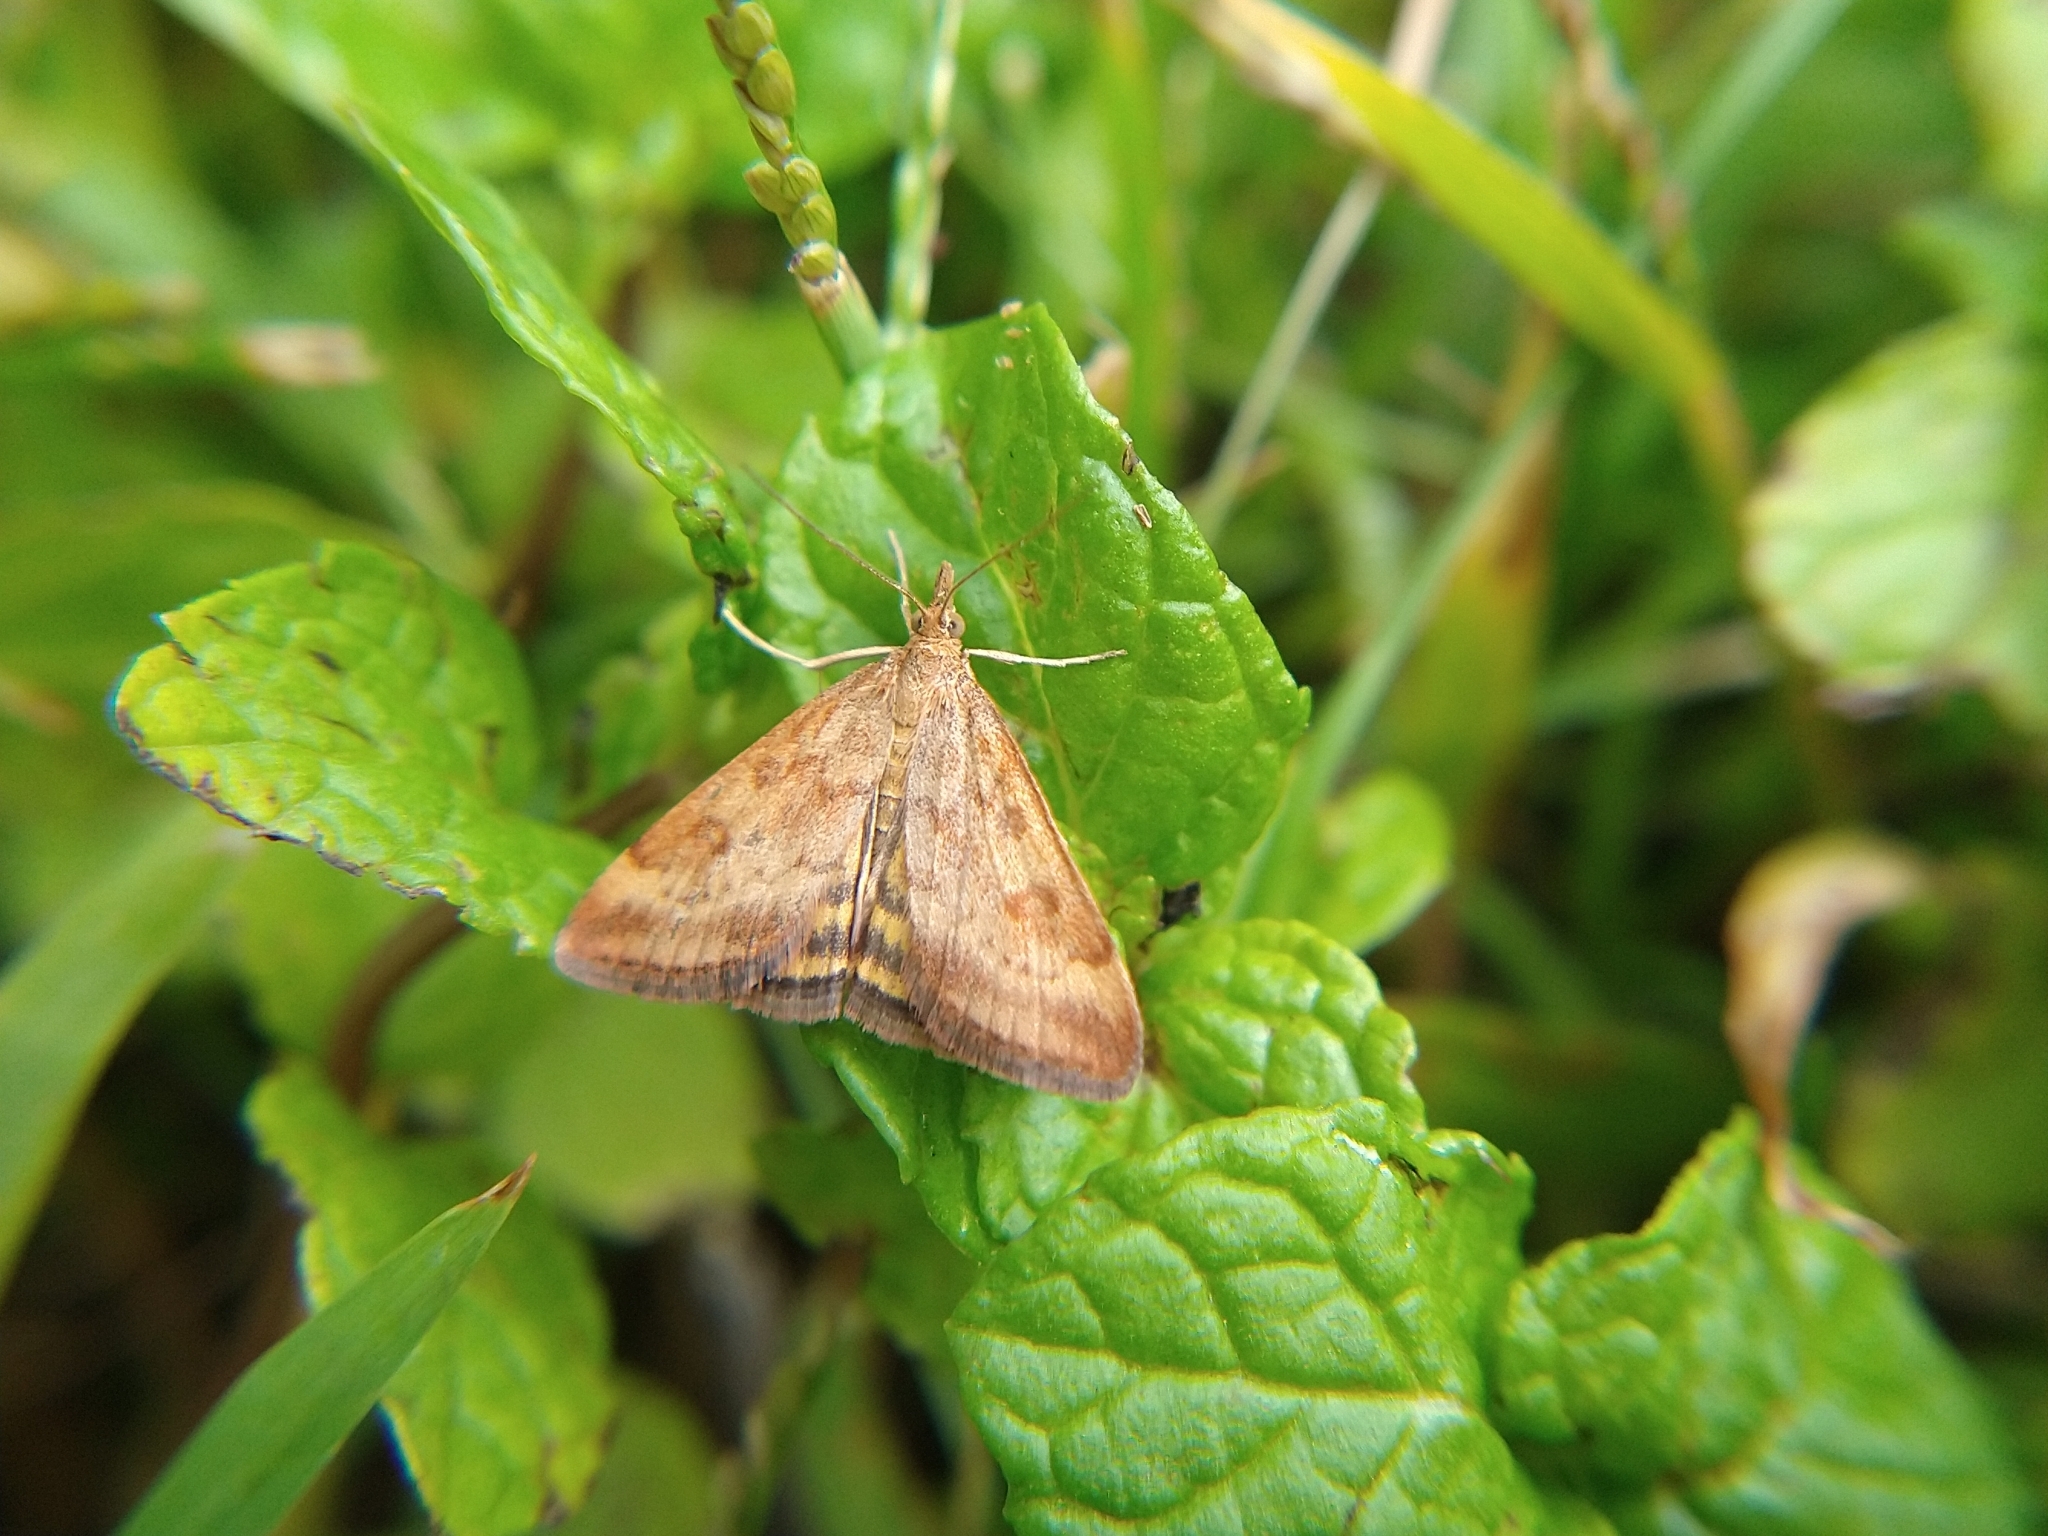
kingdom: Animalia
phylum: Arthropoda
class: Insecta
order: Lepidoptera
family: Crambidae
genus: Pyrausta
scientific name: Pyrausta subsequalis
